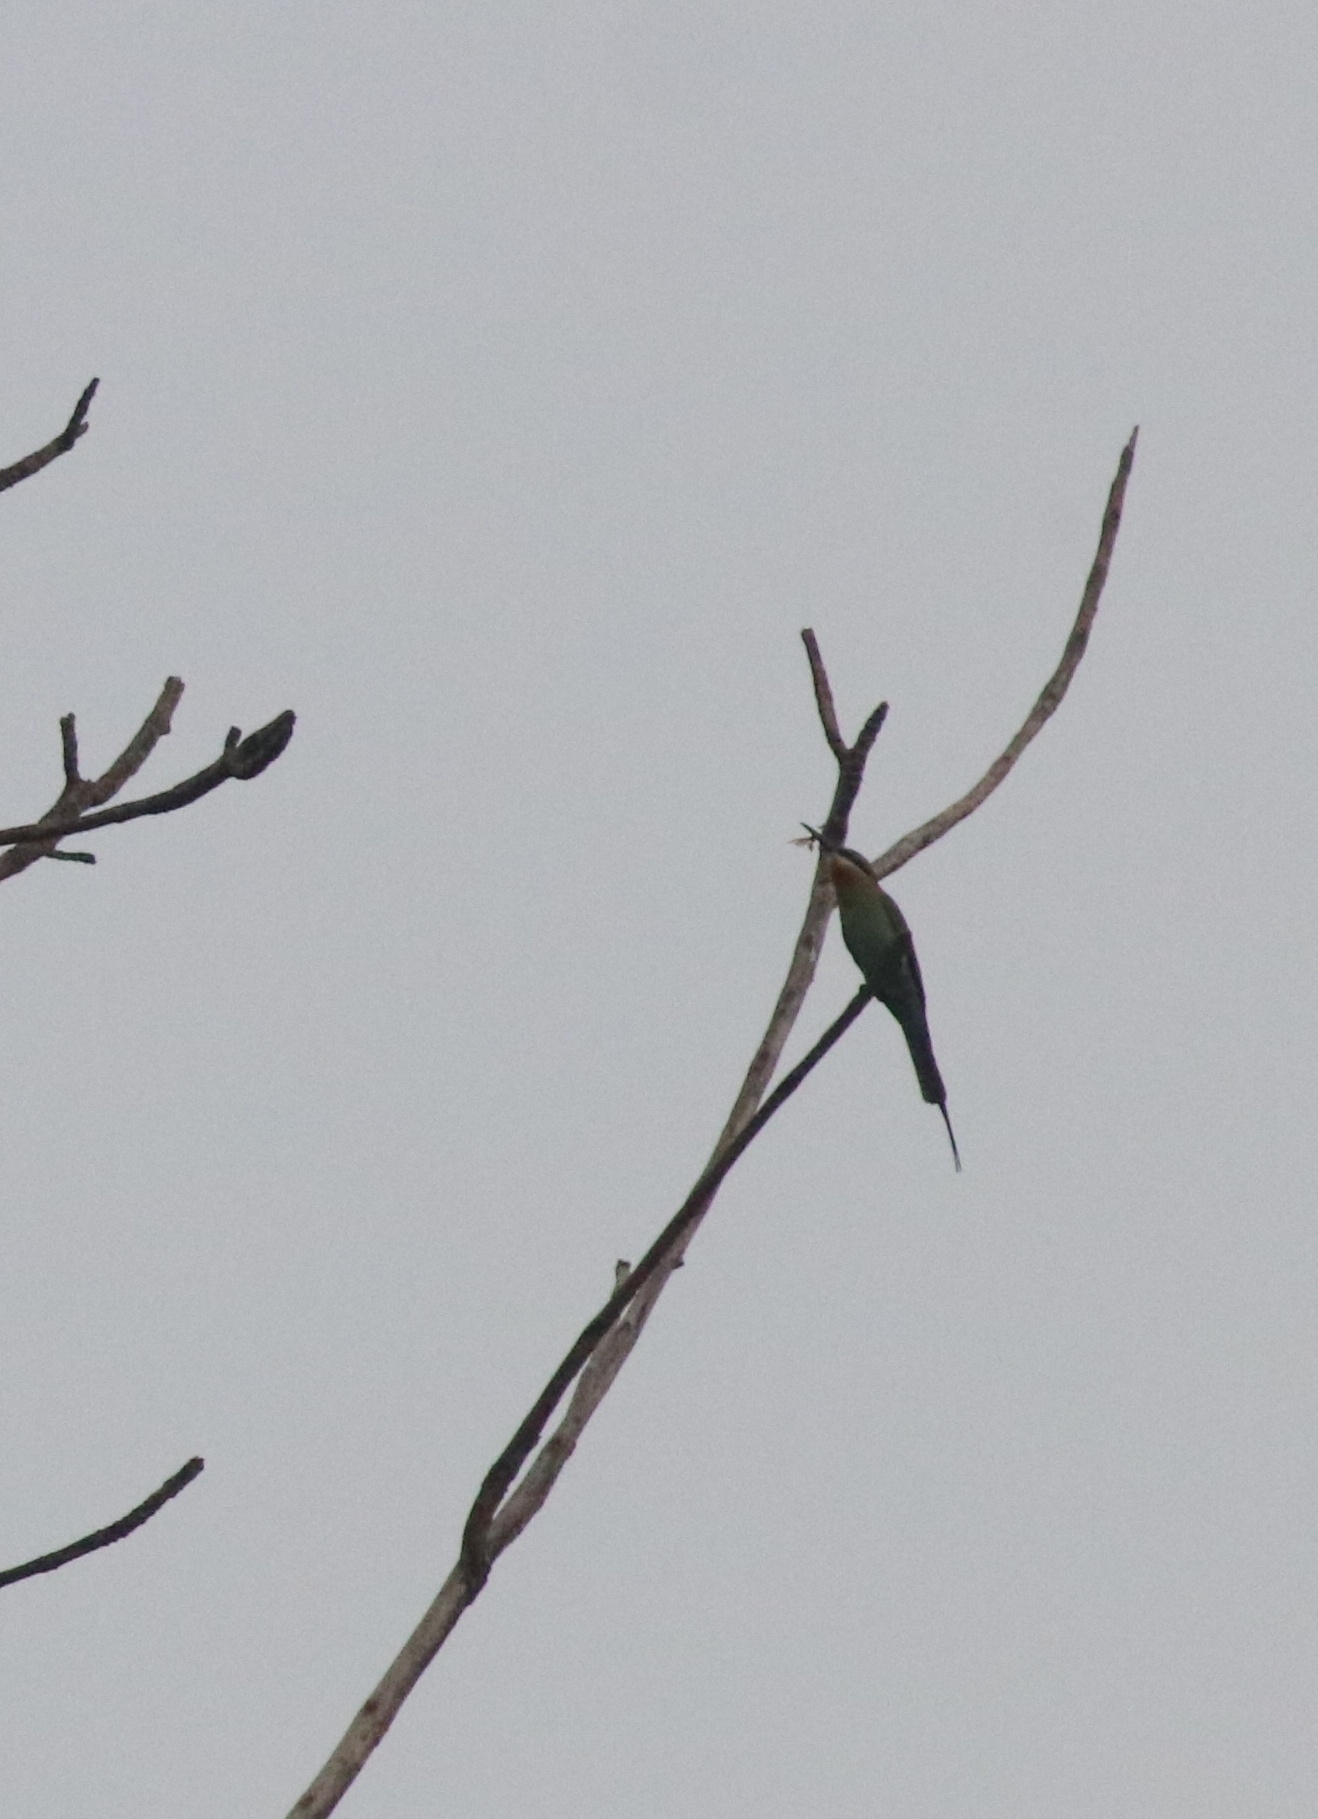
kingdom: Animalia
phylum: Chordata
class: Aves
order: Coraciiformes
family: Meropidae
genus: Merops
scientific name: Merops philippinus
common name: Blue-tailed bee-eater
